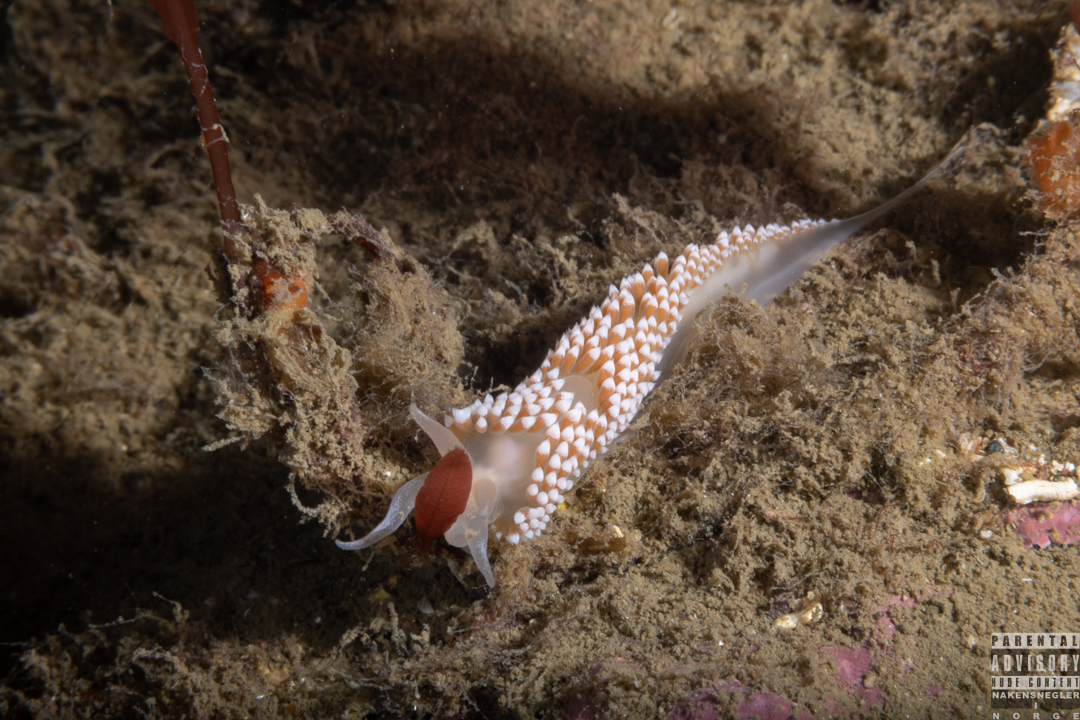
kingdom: Animalia
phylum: Mollusca
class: Gastropoda
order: Nudibranchia
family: Coryphellidae
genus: Coryphella
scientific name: Coryphella verrucosa
